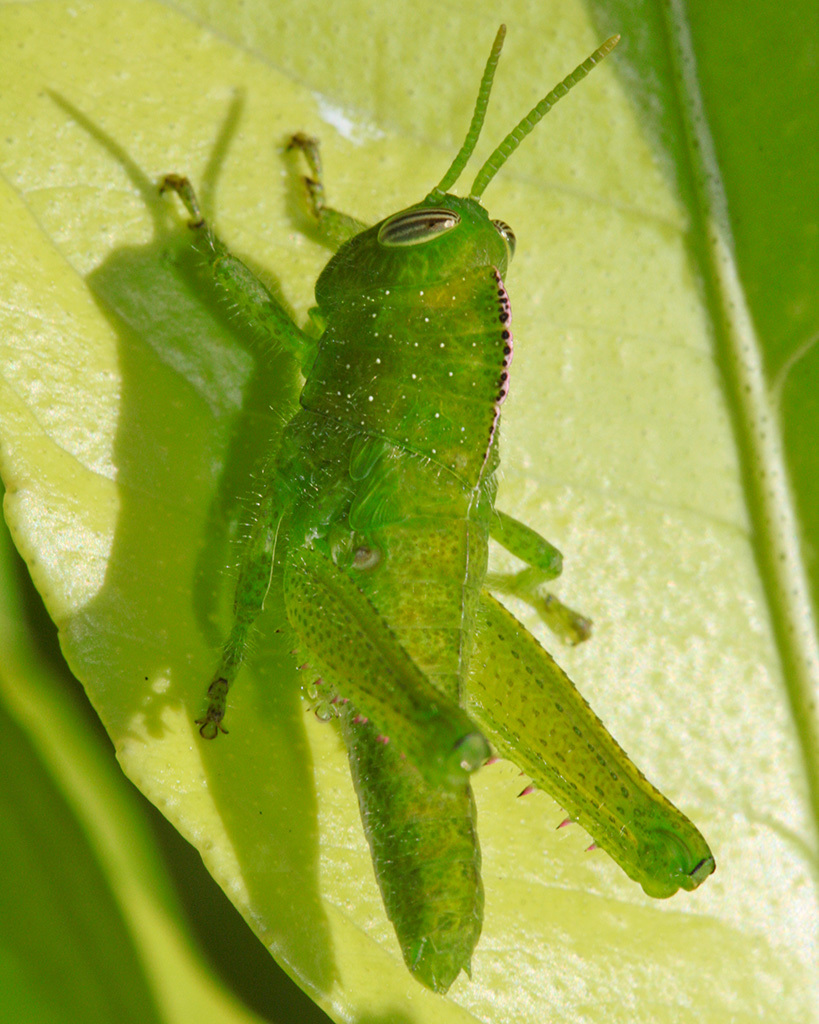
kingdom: Animalia
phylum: Arthropoda
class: Insecta
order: Orthoptera
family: Acrididae
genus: Acanthacris
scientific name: Acanthacris ruficornis
